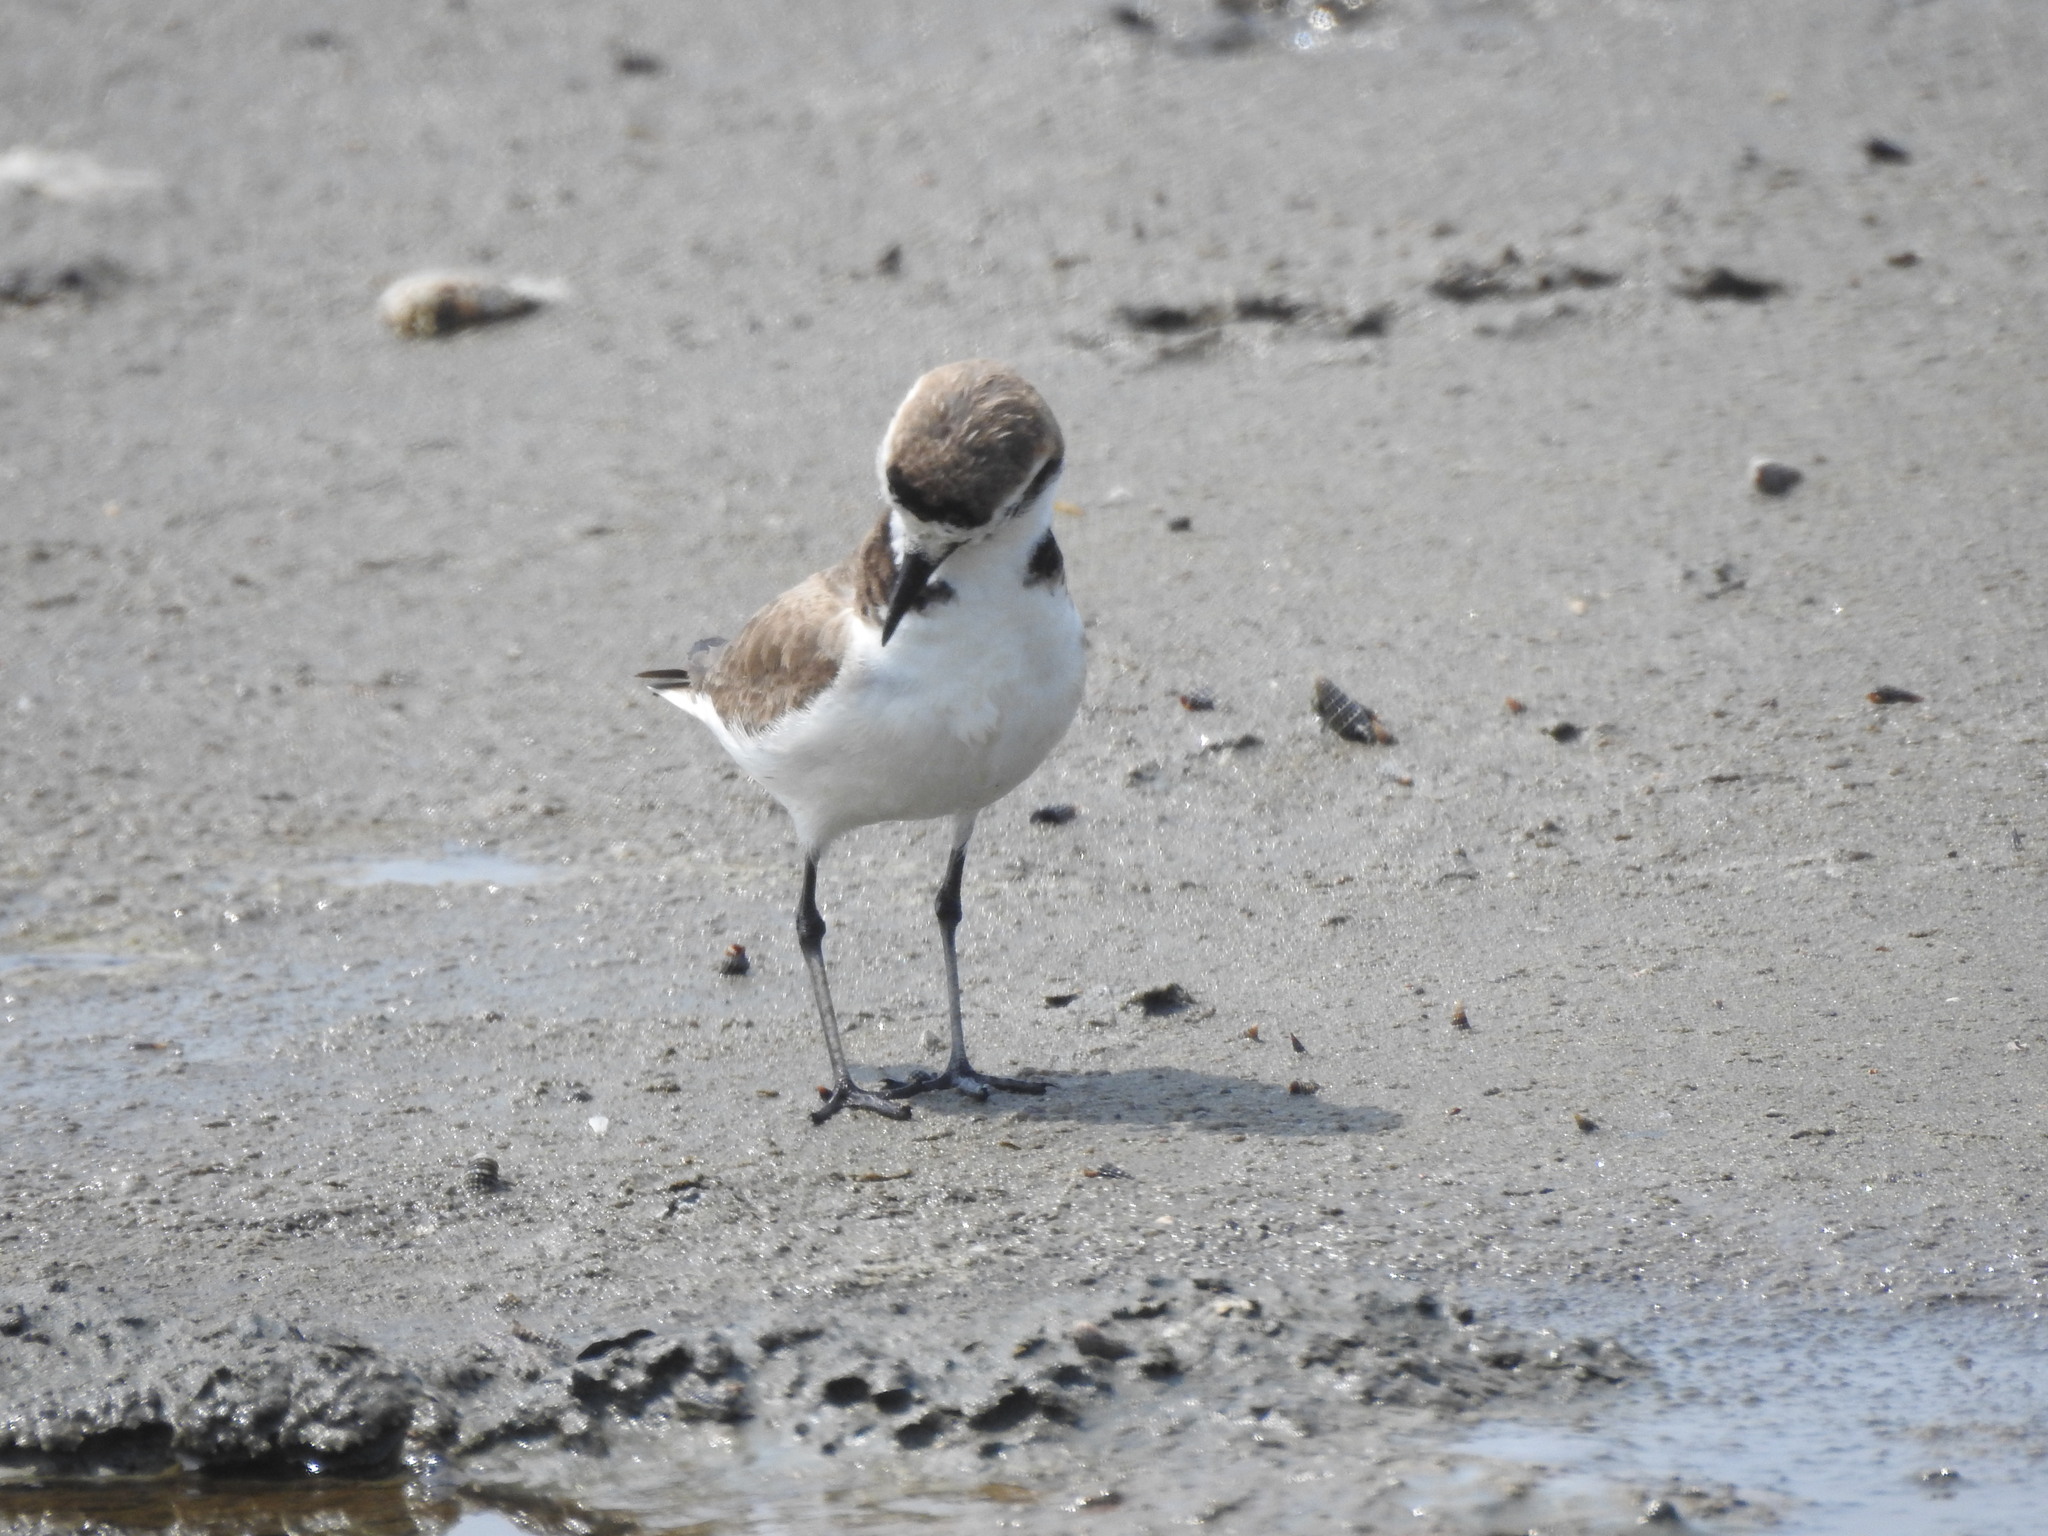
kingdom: Animalia
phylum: Chordata
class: Aves
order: Charadriiformes
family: Charadriidae
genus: Charadrius
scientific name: Charadrius alexandrinus
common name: Kentish plover
